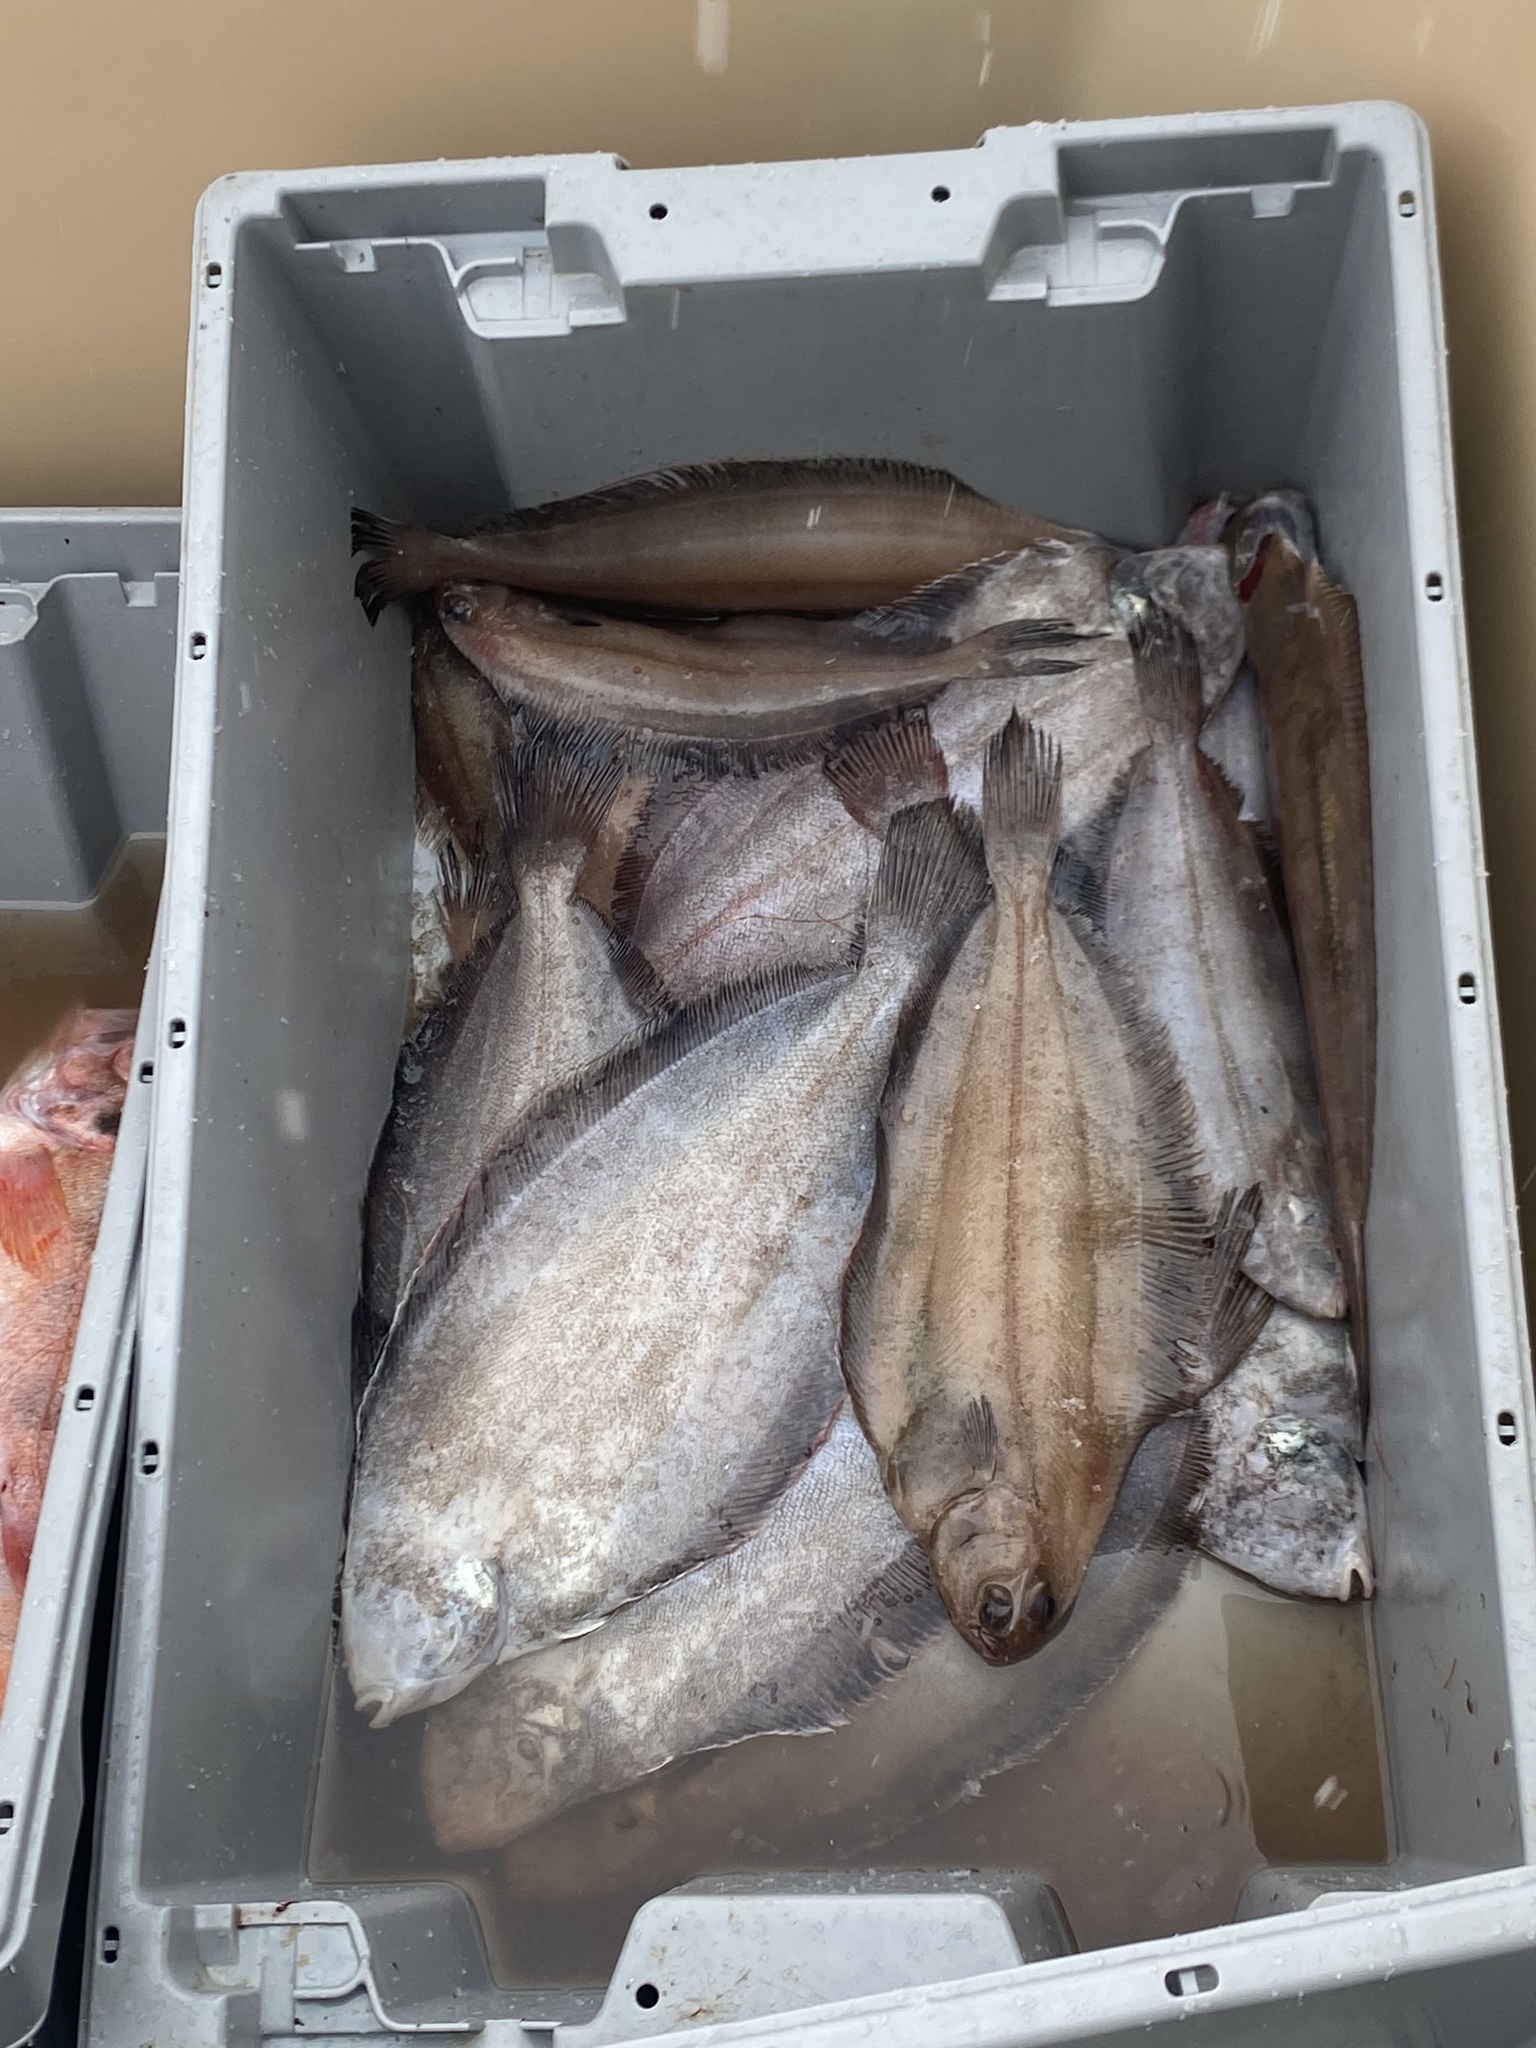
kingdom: Animalia
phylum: Chordata
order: Pleuronectiformes
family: Pleuronectidae
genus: Glyptocephalus
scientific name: Glyptocephalus cynoglossus
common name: Witch
